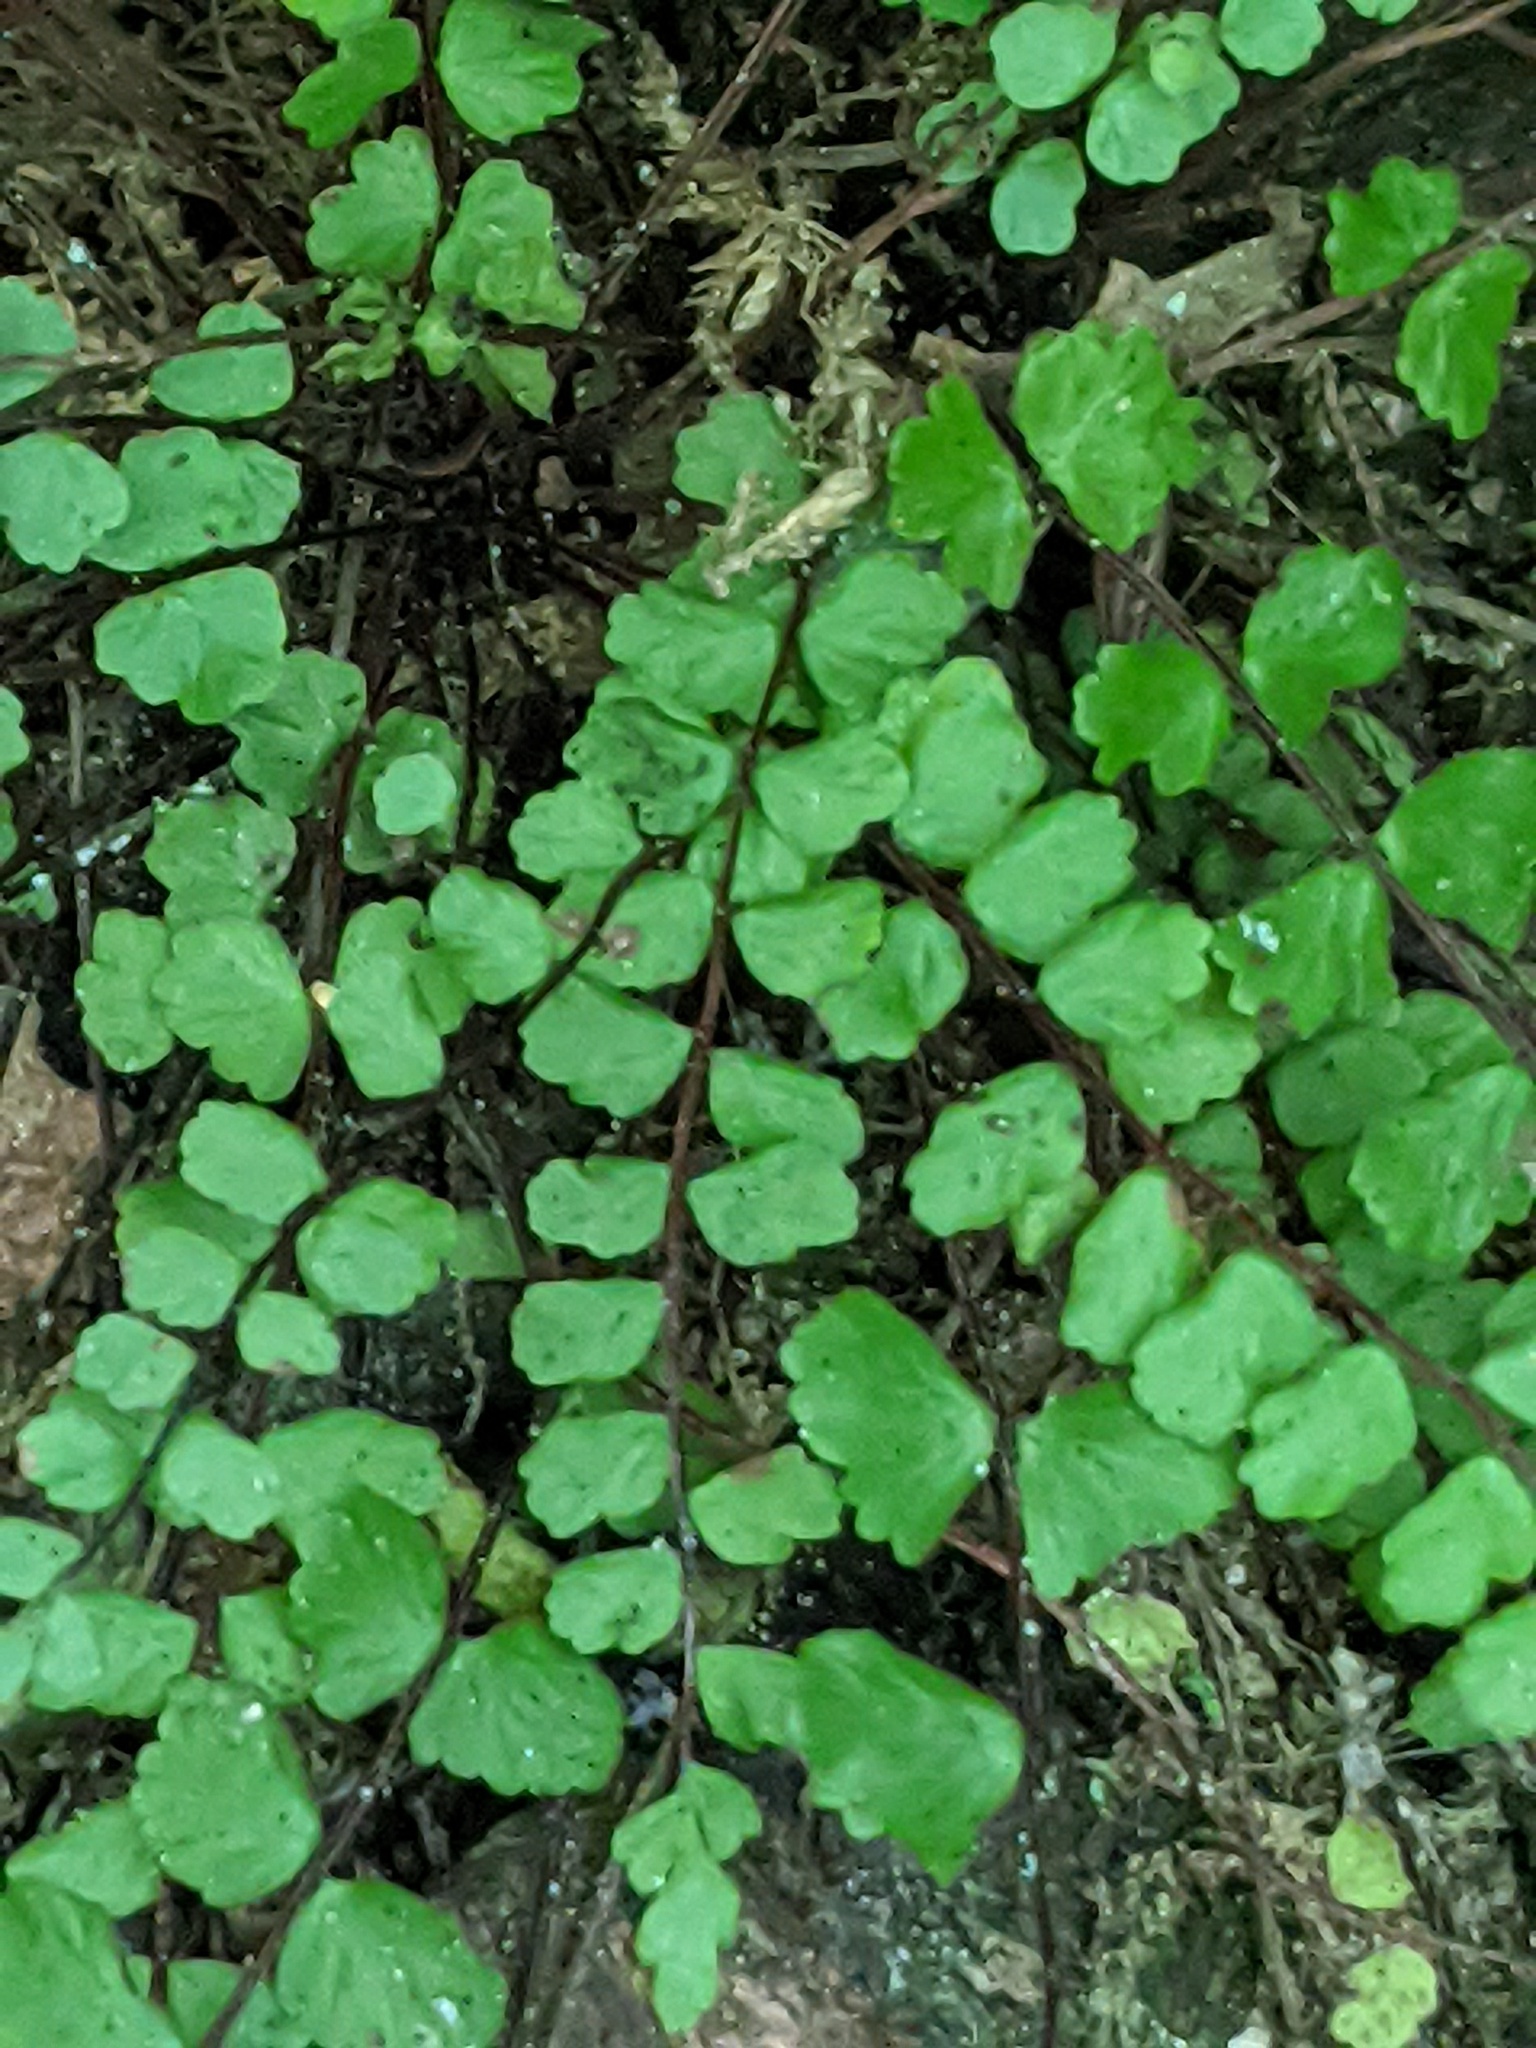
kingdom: Plantae
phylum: Tracheophyta
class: Polypodiopsida
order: Polypodiales
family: Aspleniaceae
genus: Asplenium
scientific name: Asplenium trichomanes
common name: Maidenhair spleenwort
